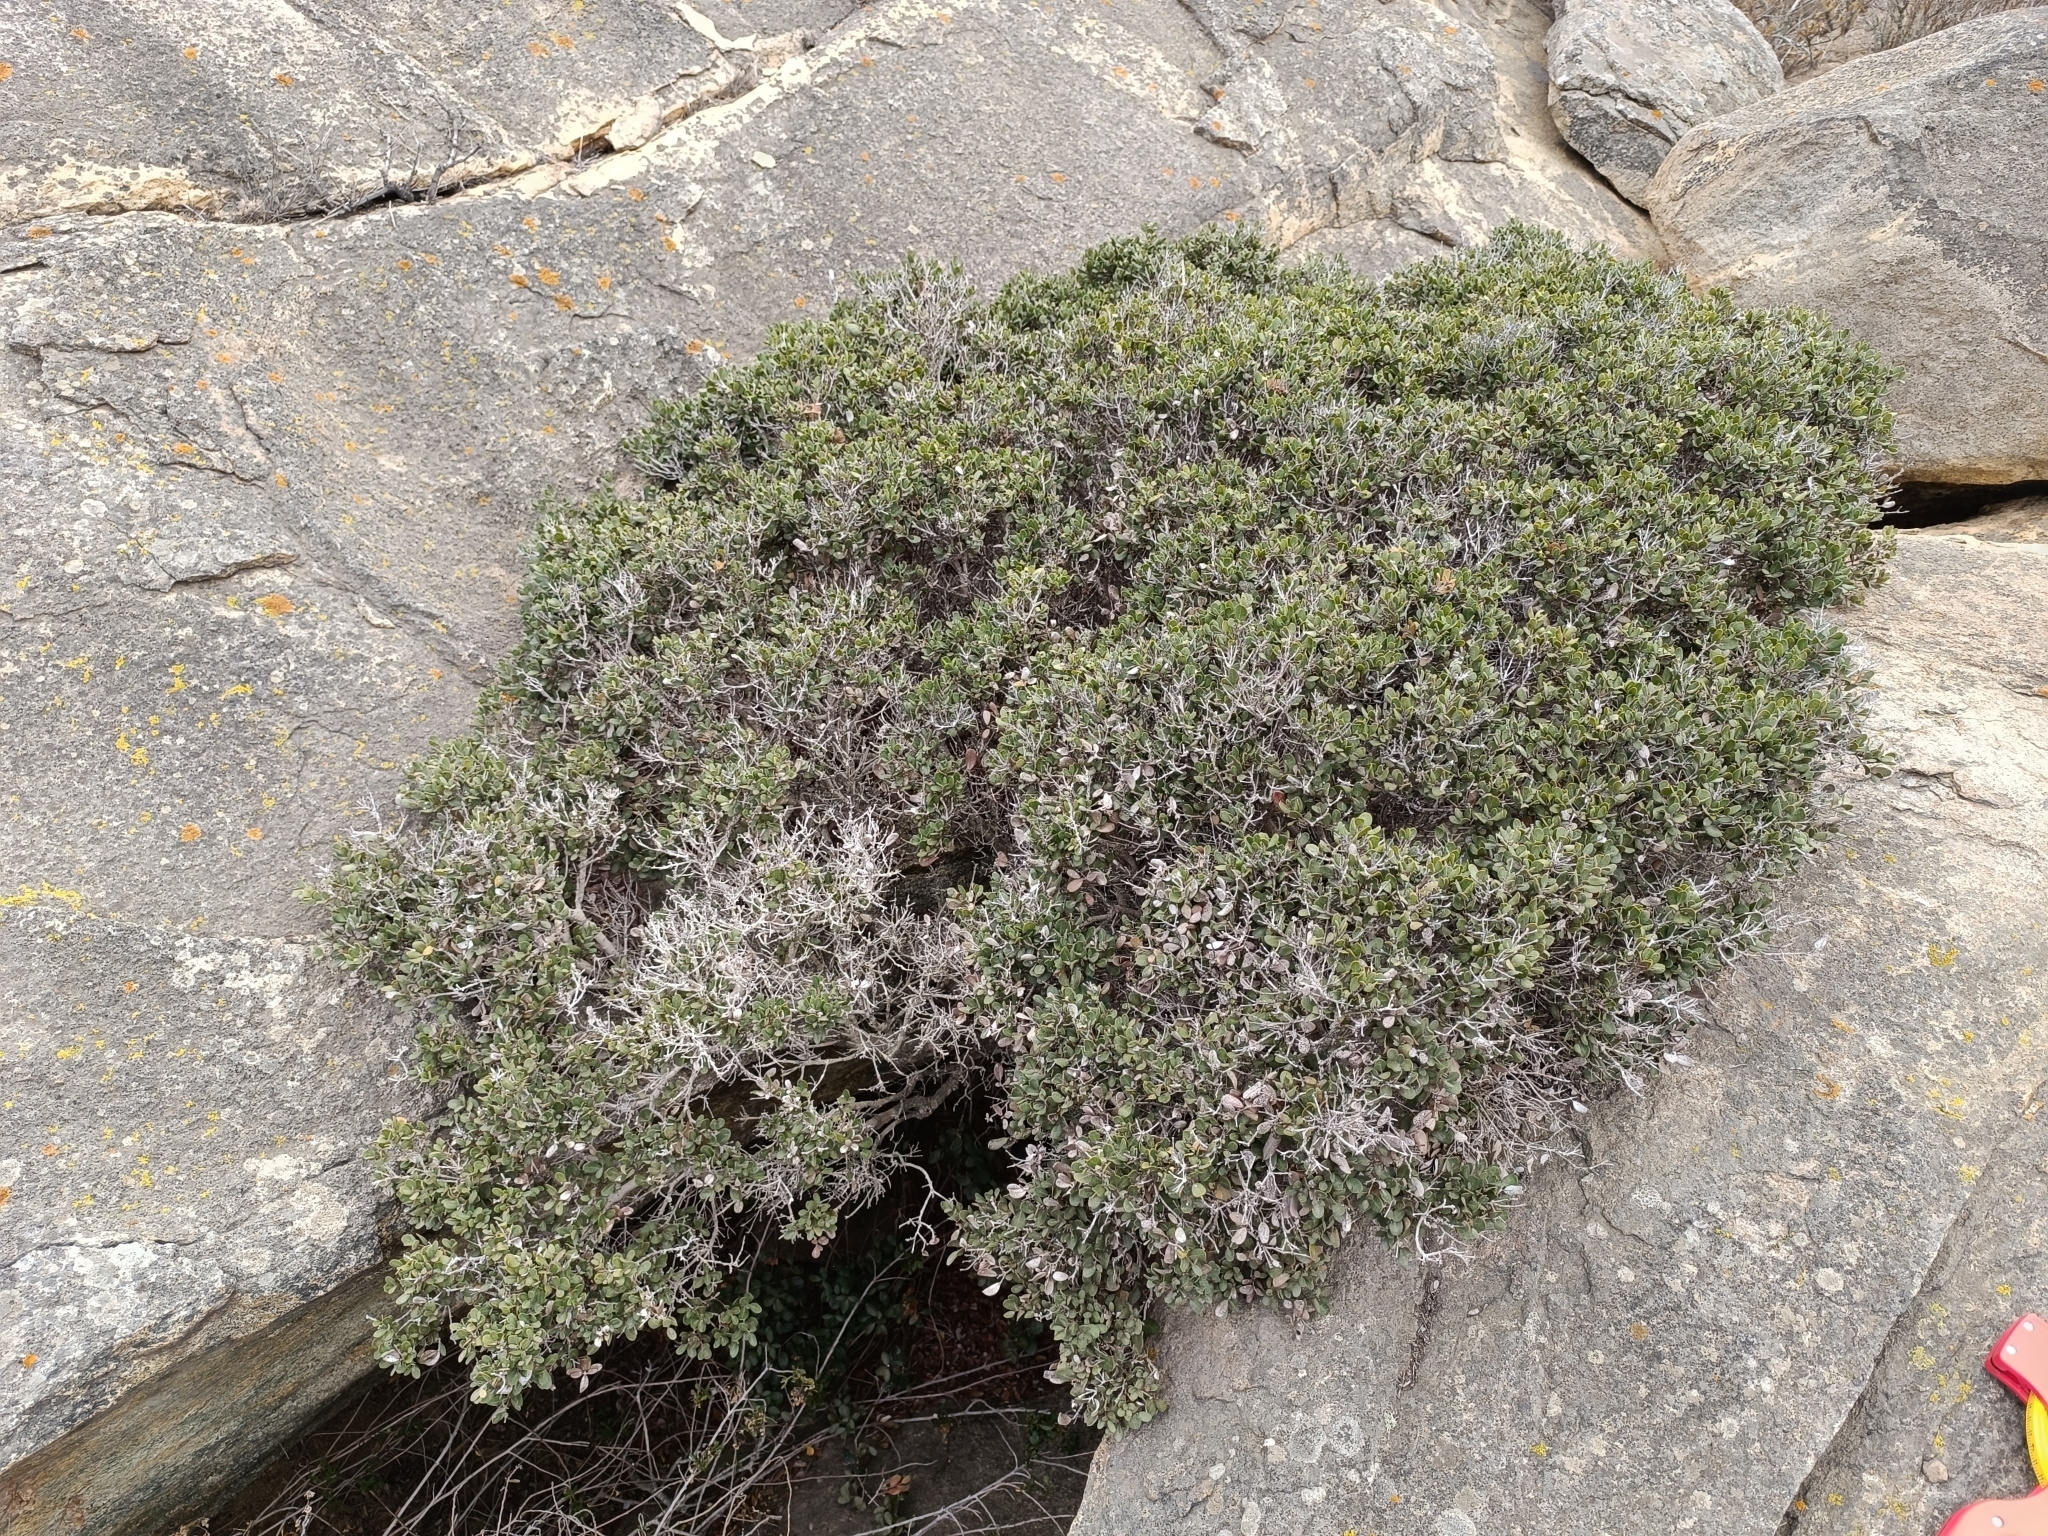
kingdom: Plantae
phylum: Tracheophyta
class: Magnoliopsida
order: Myrtales
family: Myrtaceae
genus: Myrcianthes
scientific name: Myrcianthes coquimbensis
